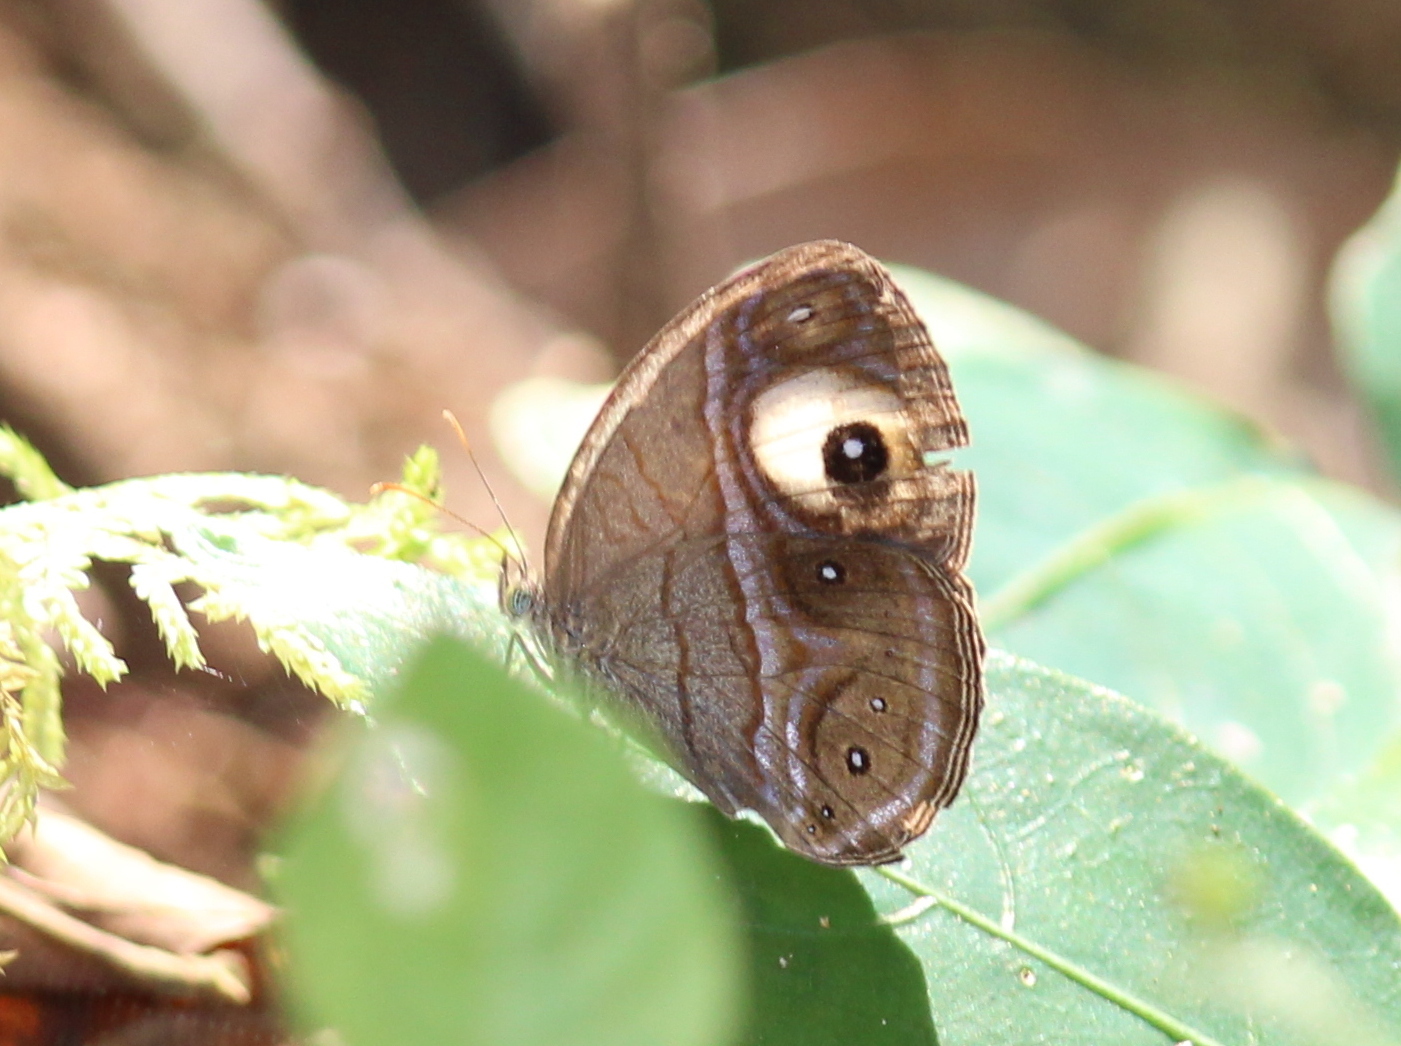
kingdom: Animalia
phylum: Arthropoda
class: Insecta
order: Lepidoptera
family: Nymphalidae
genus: Mycalesis
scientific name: Mycalesis patnia
